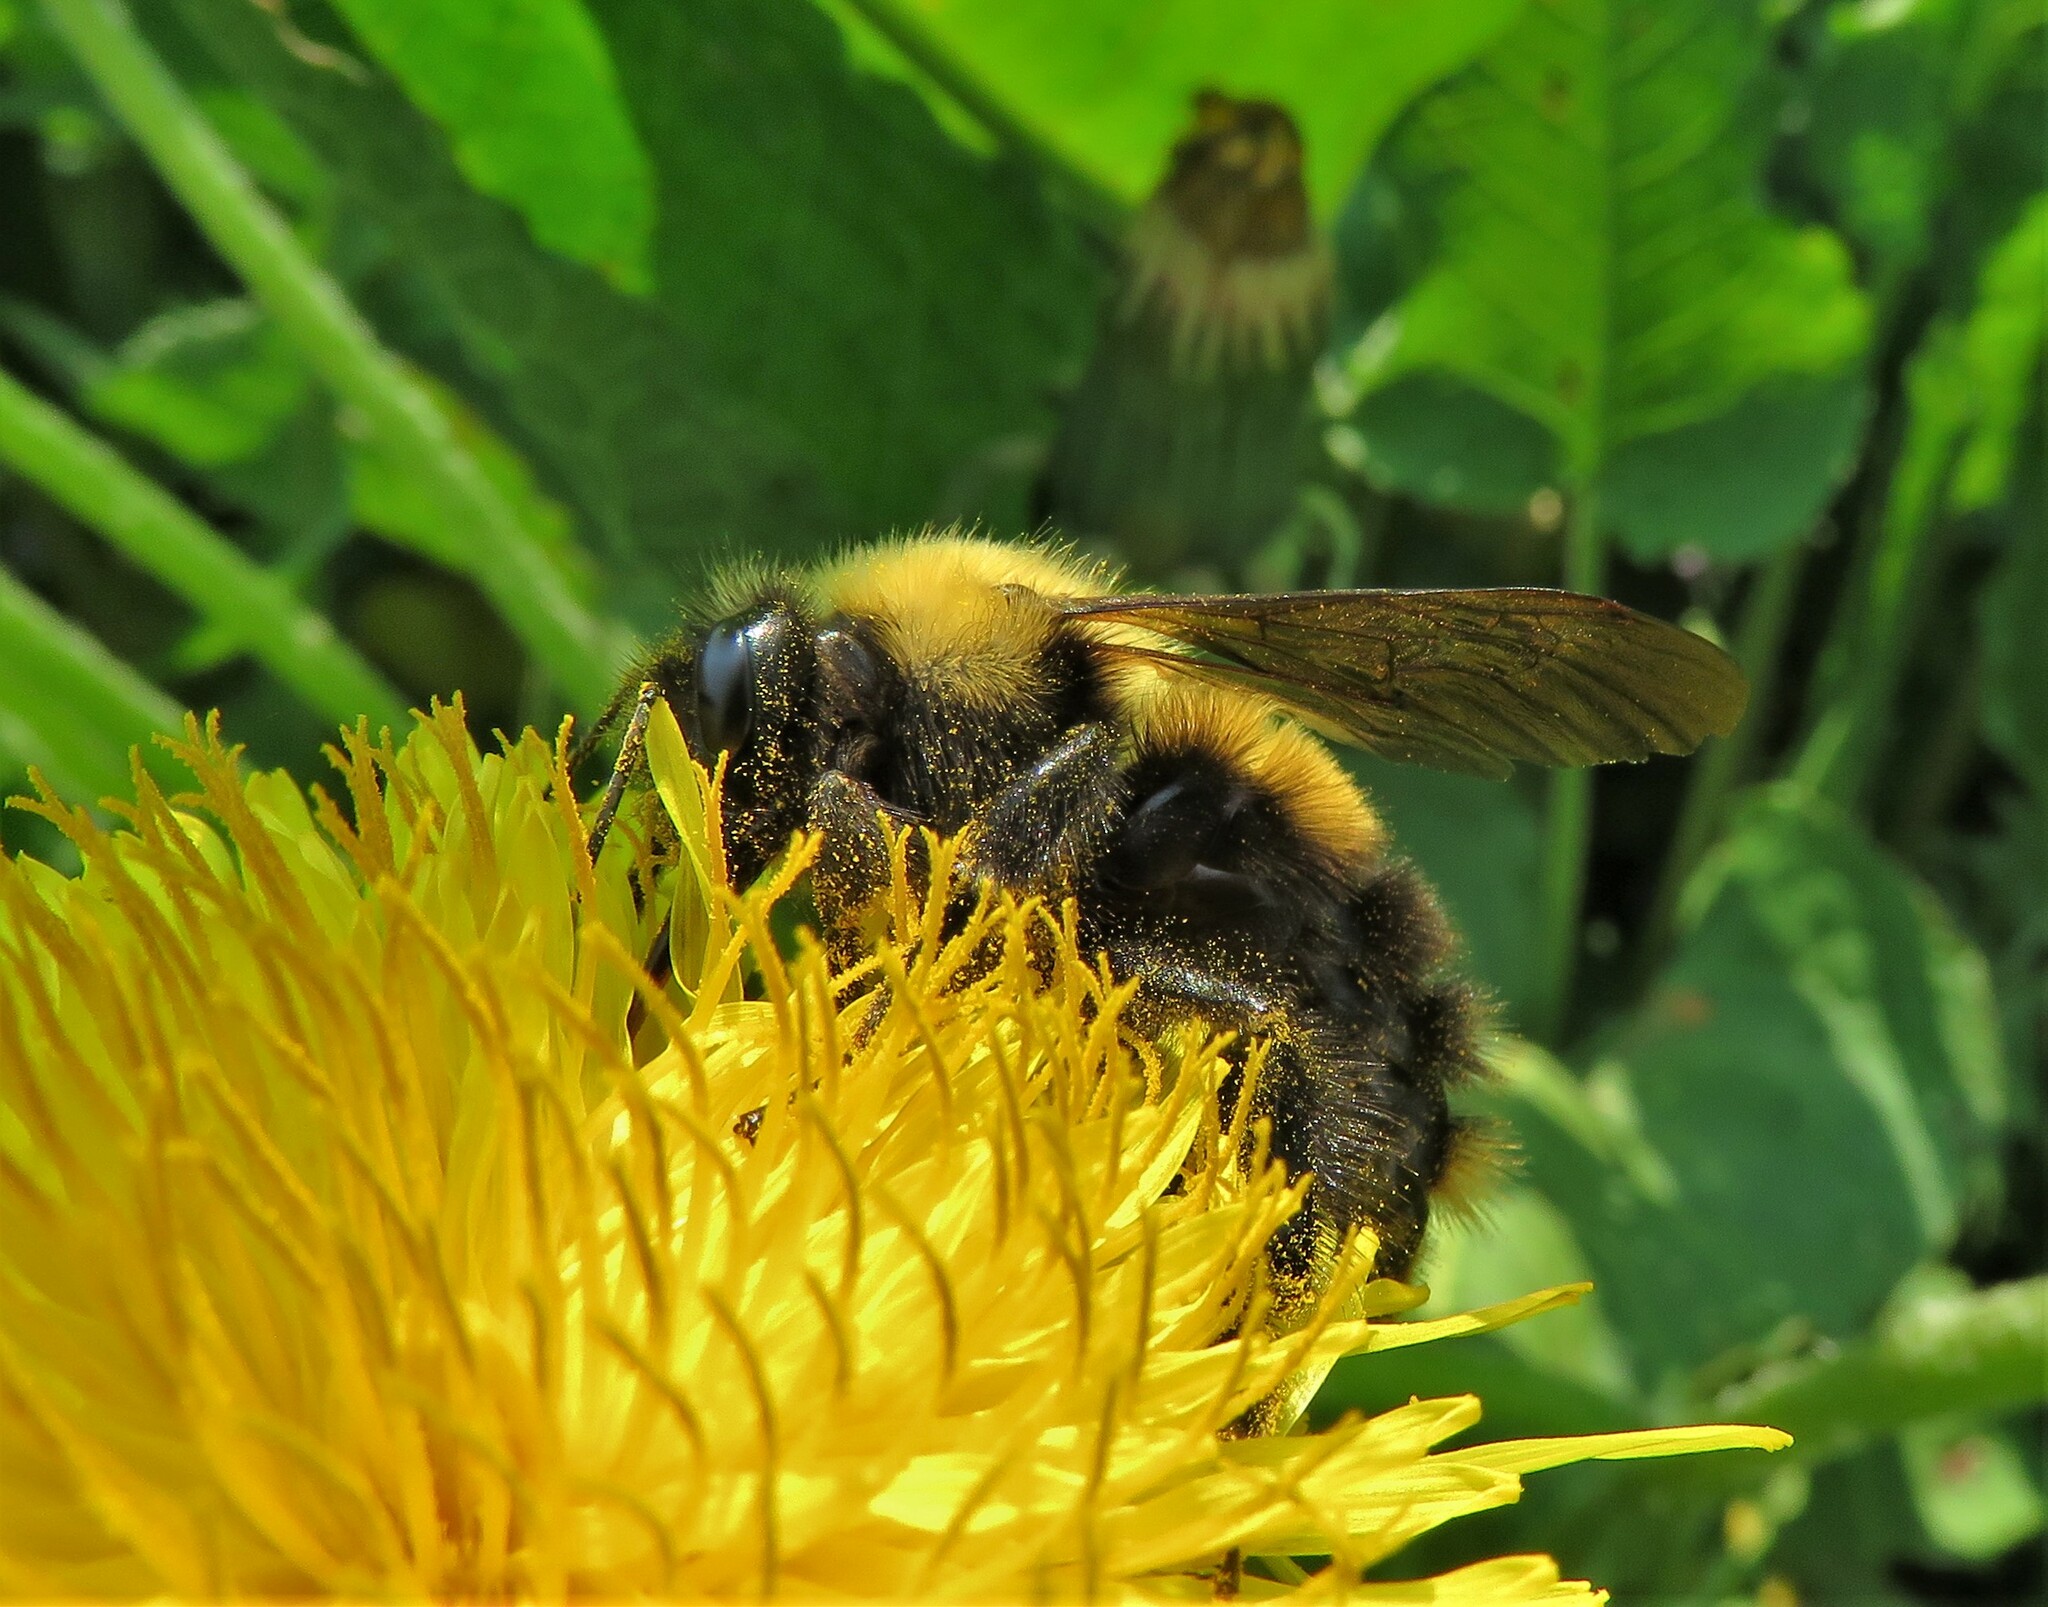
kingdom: Animalia
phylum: Arthropoda
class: Insecta
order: Hymenoptera
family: Apidae
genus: Bombus
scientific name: Bombus perplexus
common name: Confusing bumble bee
